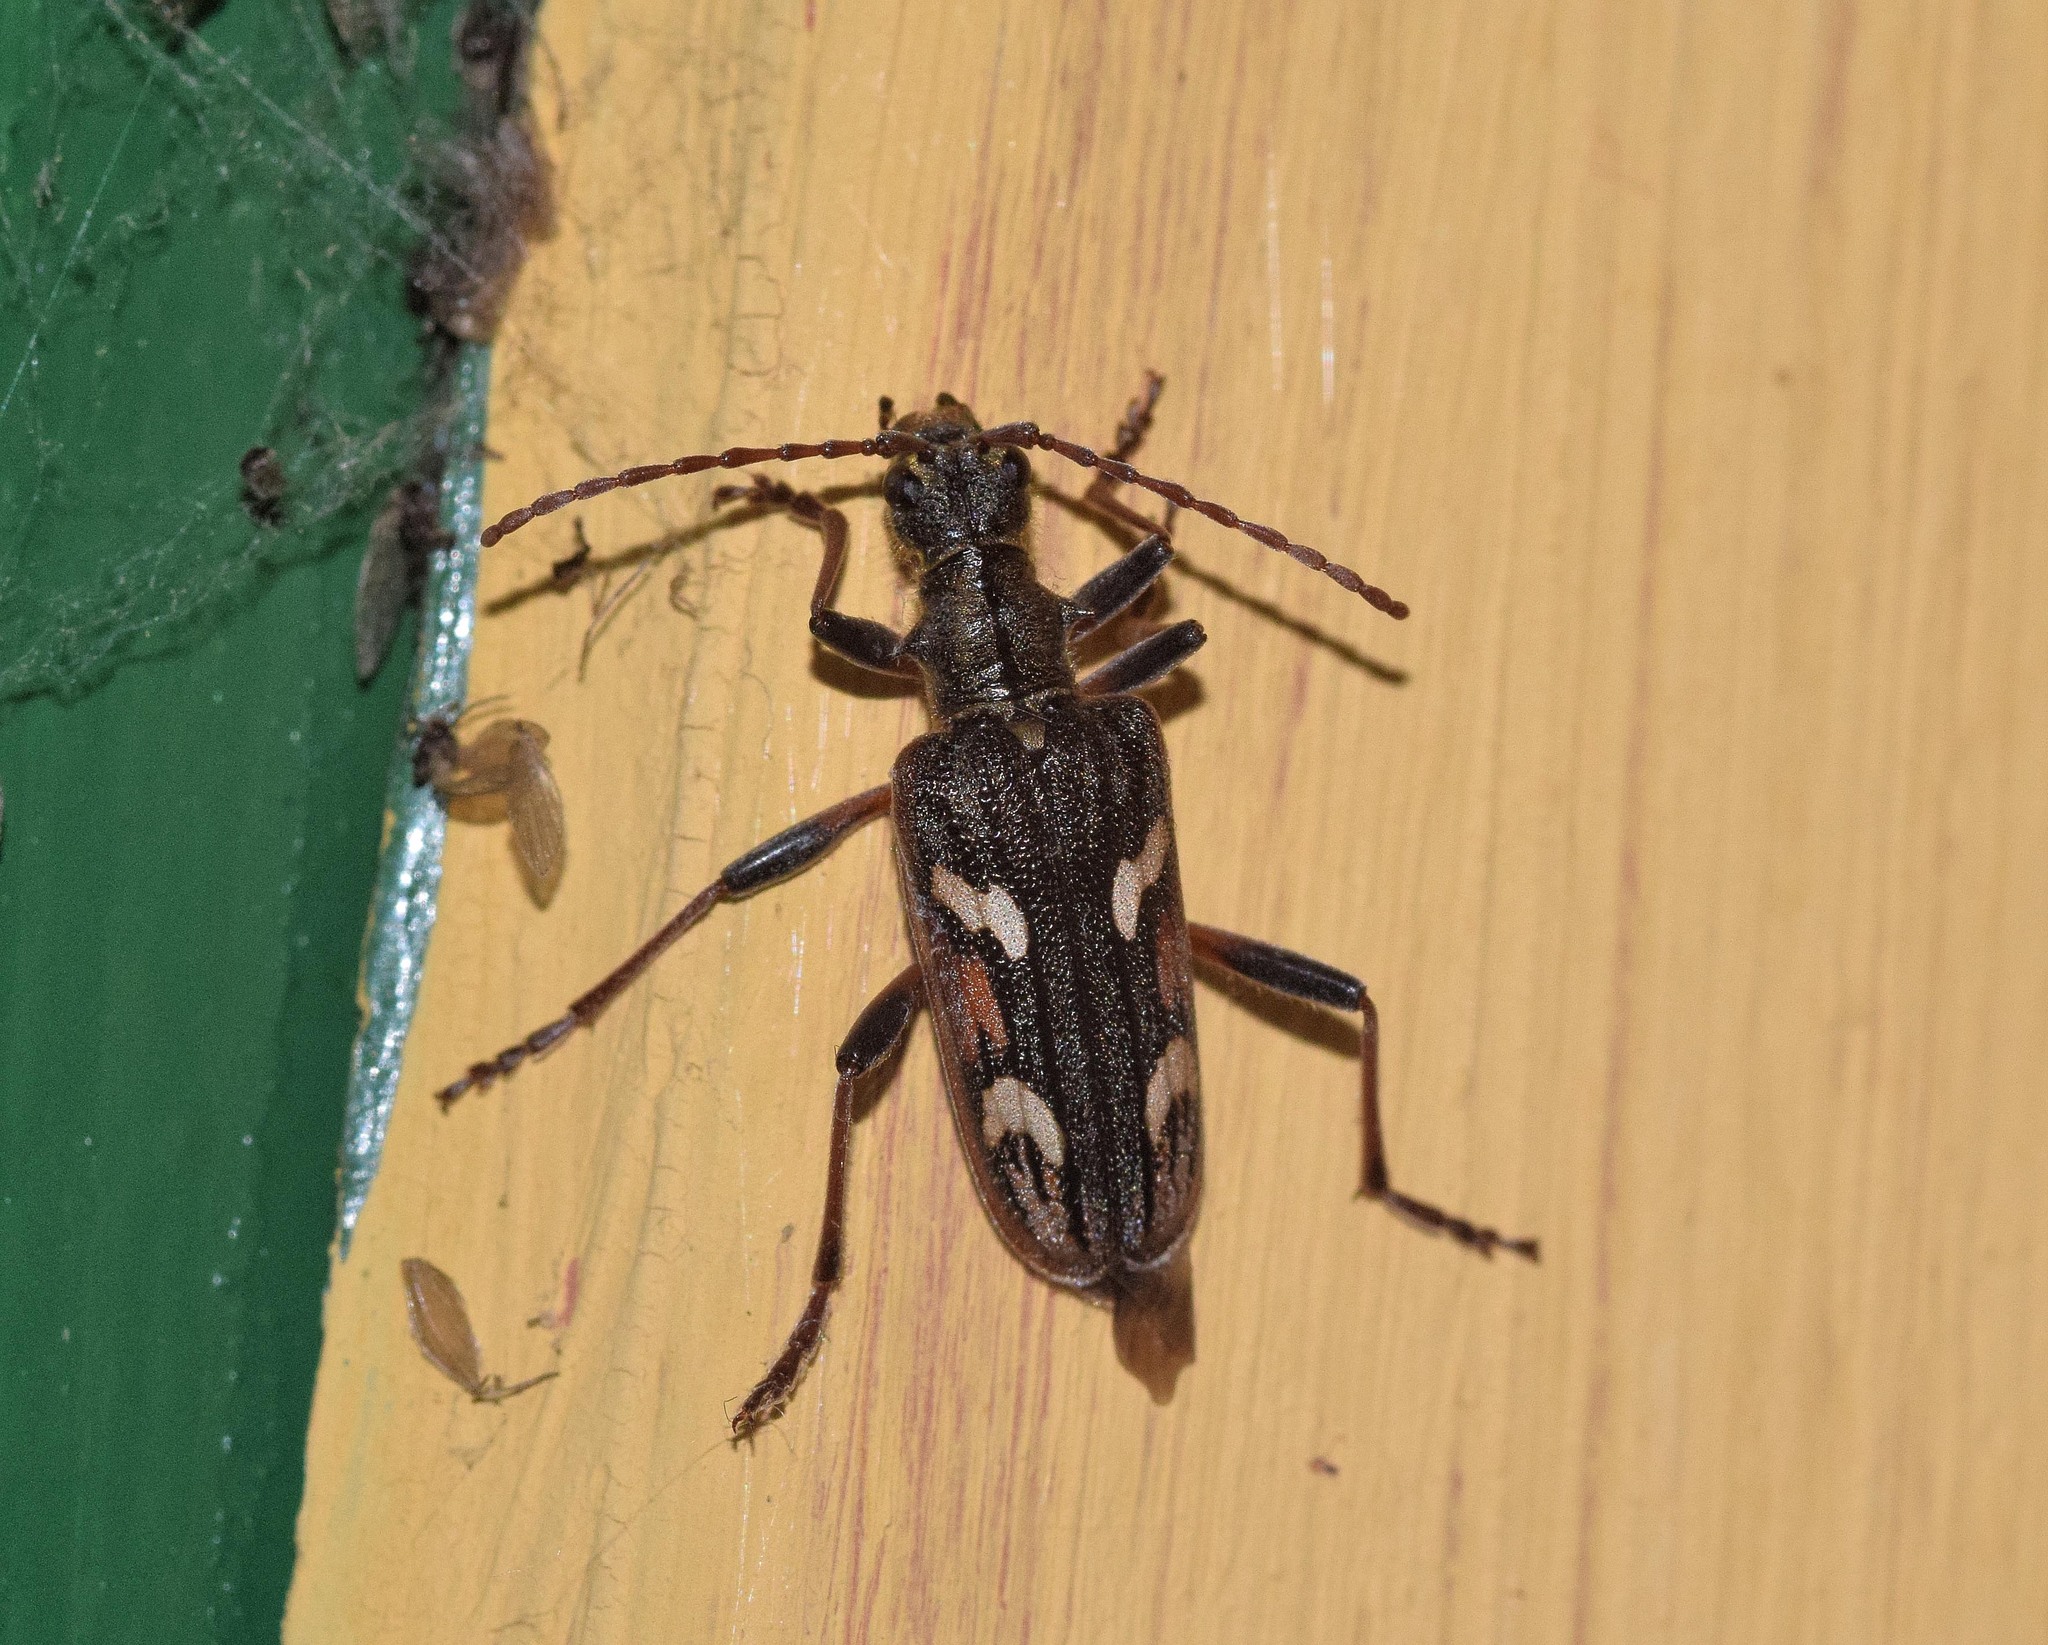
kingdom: Animalia
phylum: Arthropoda
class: Insecta
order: Coleoptera
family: Cerambycidae
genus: Rhagium
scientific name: Rhagium bifasciatum
